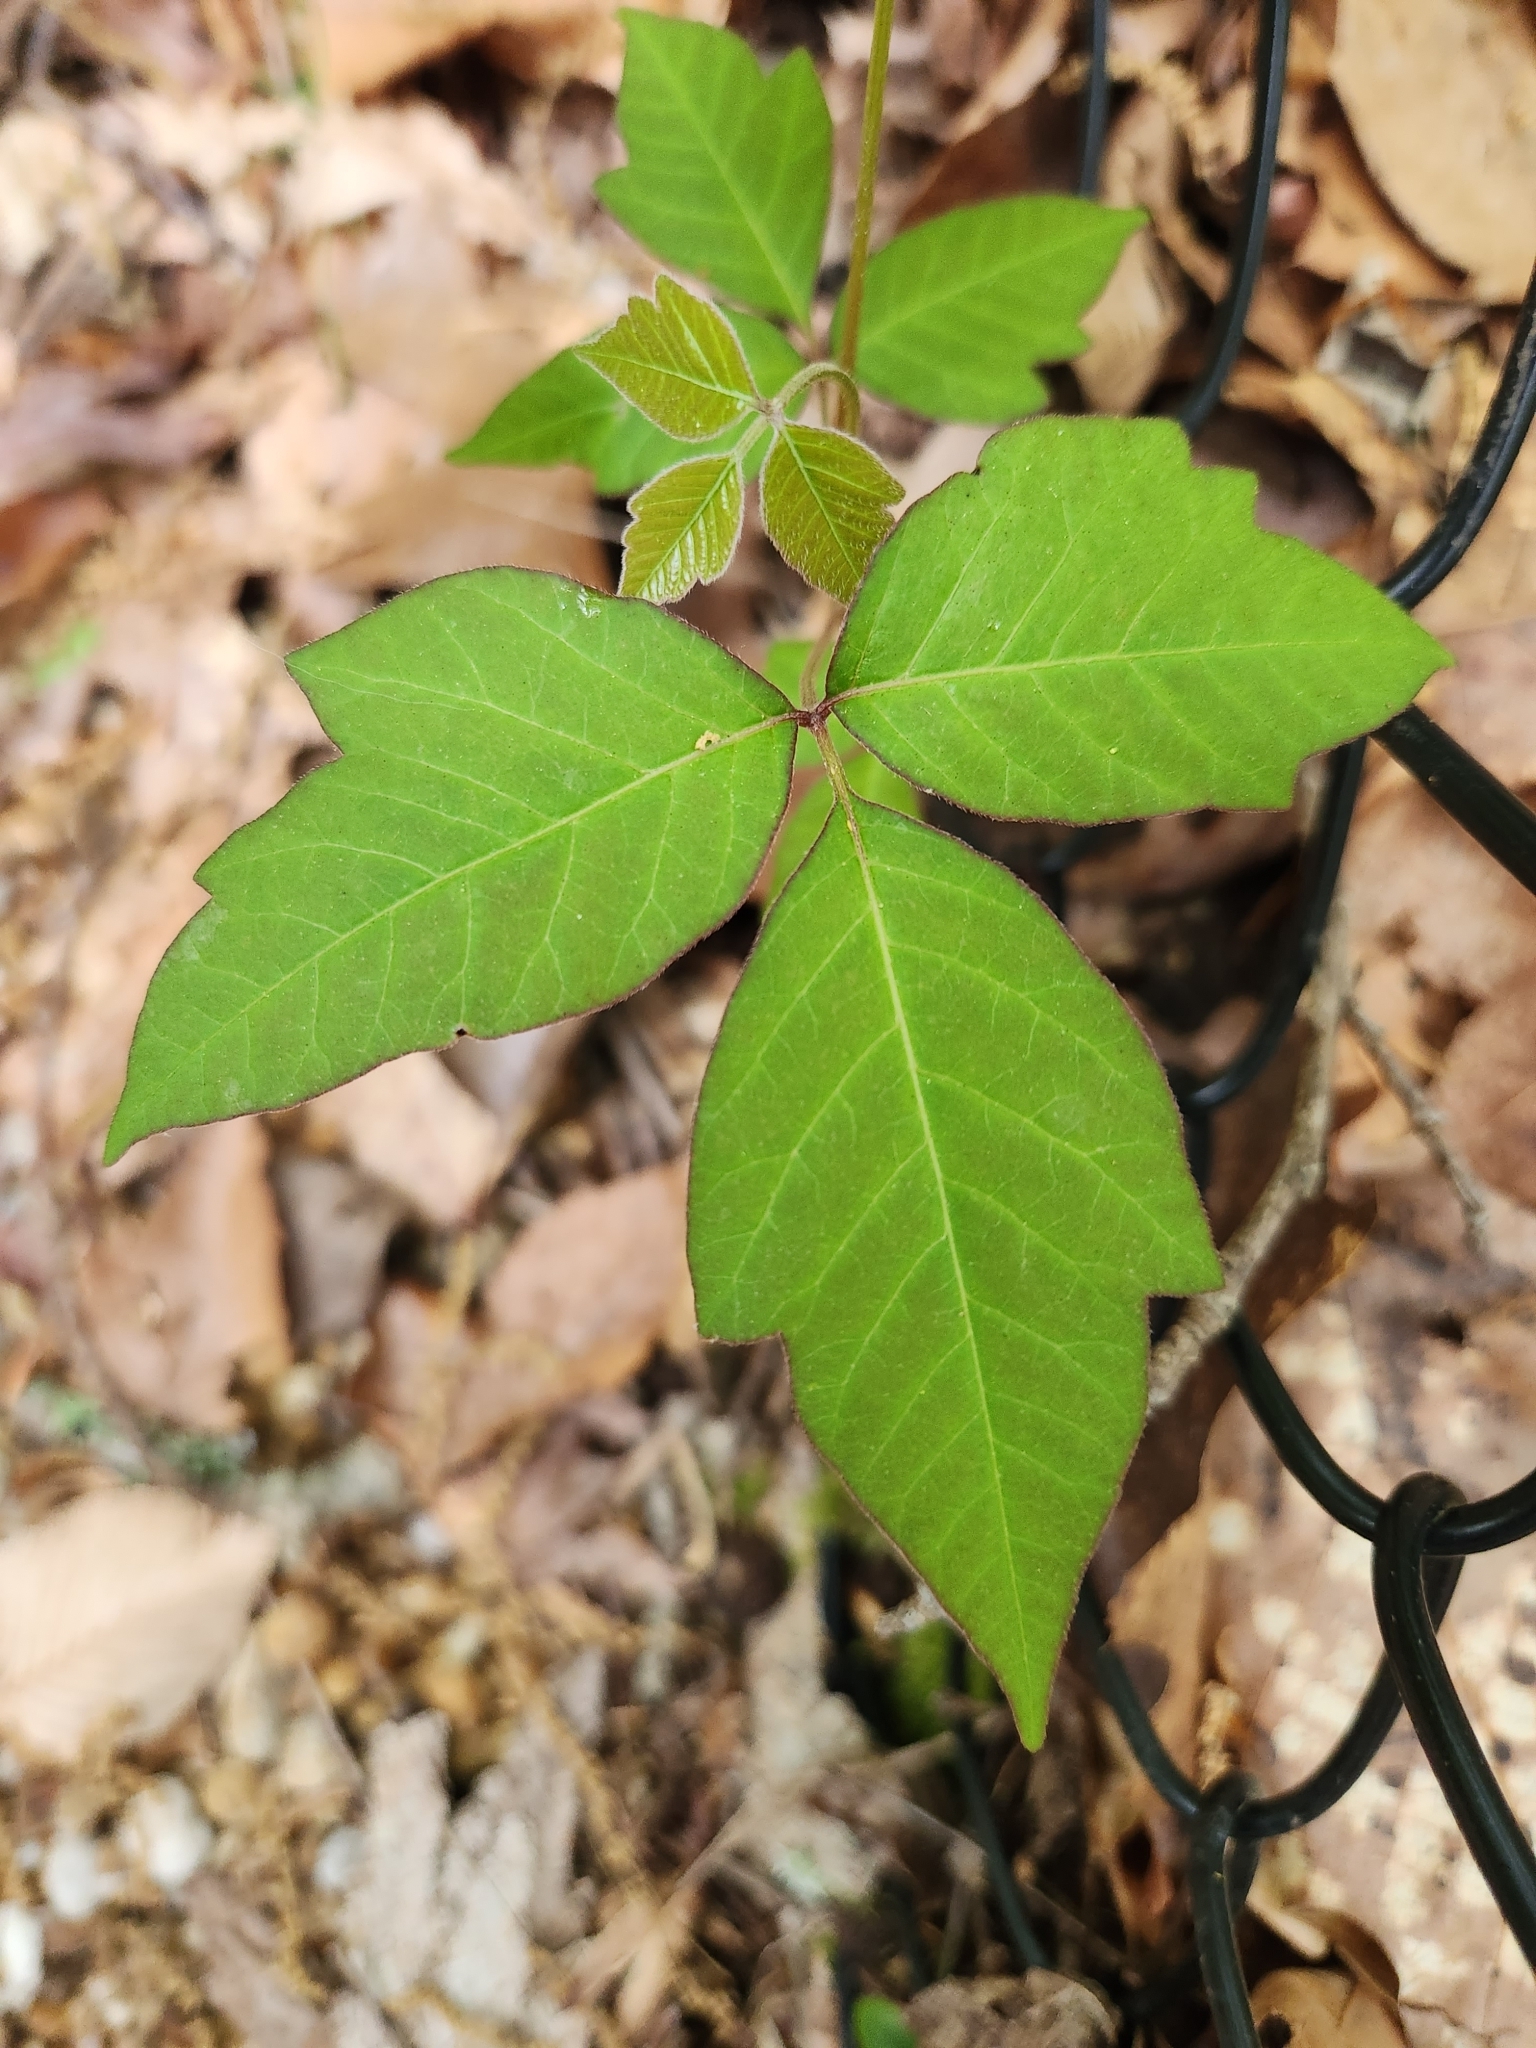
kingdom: Plantae
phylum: Tracheophyta
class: Magnoliopsida
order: Sapindales
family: Anacardiaceae
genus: Toxicodendron
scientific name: Toxicodendron radicans
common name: Poison ivy
